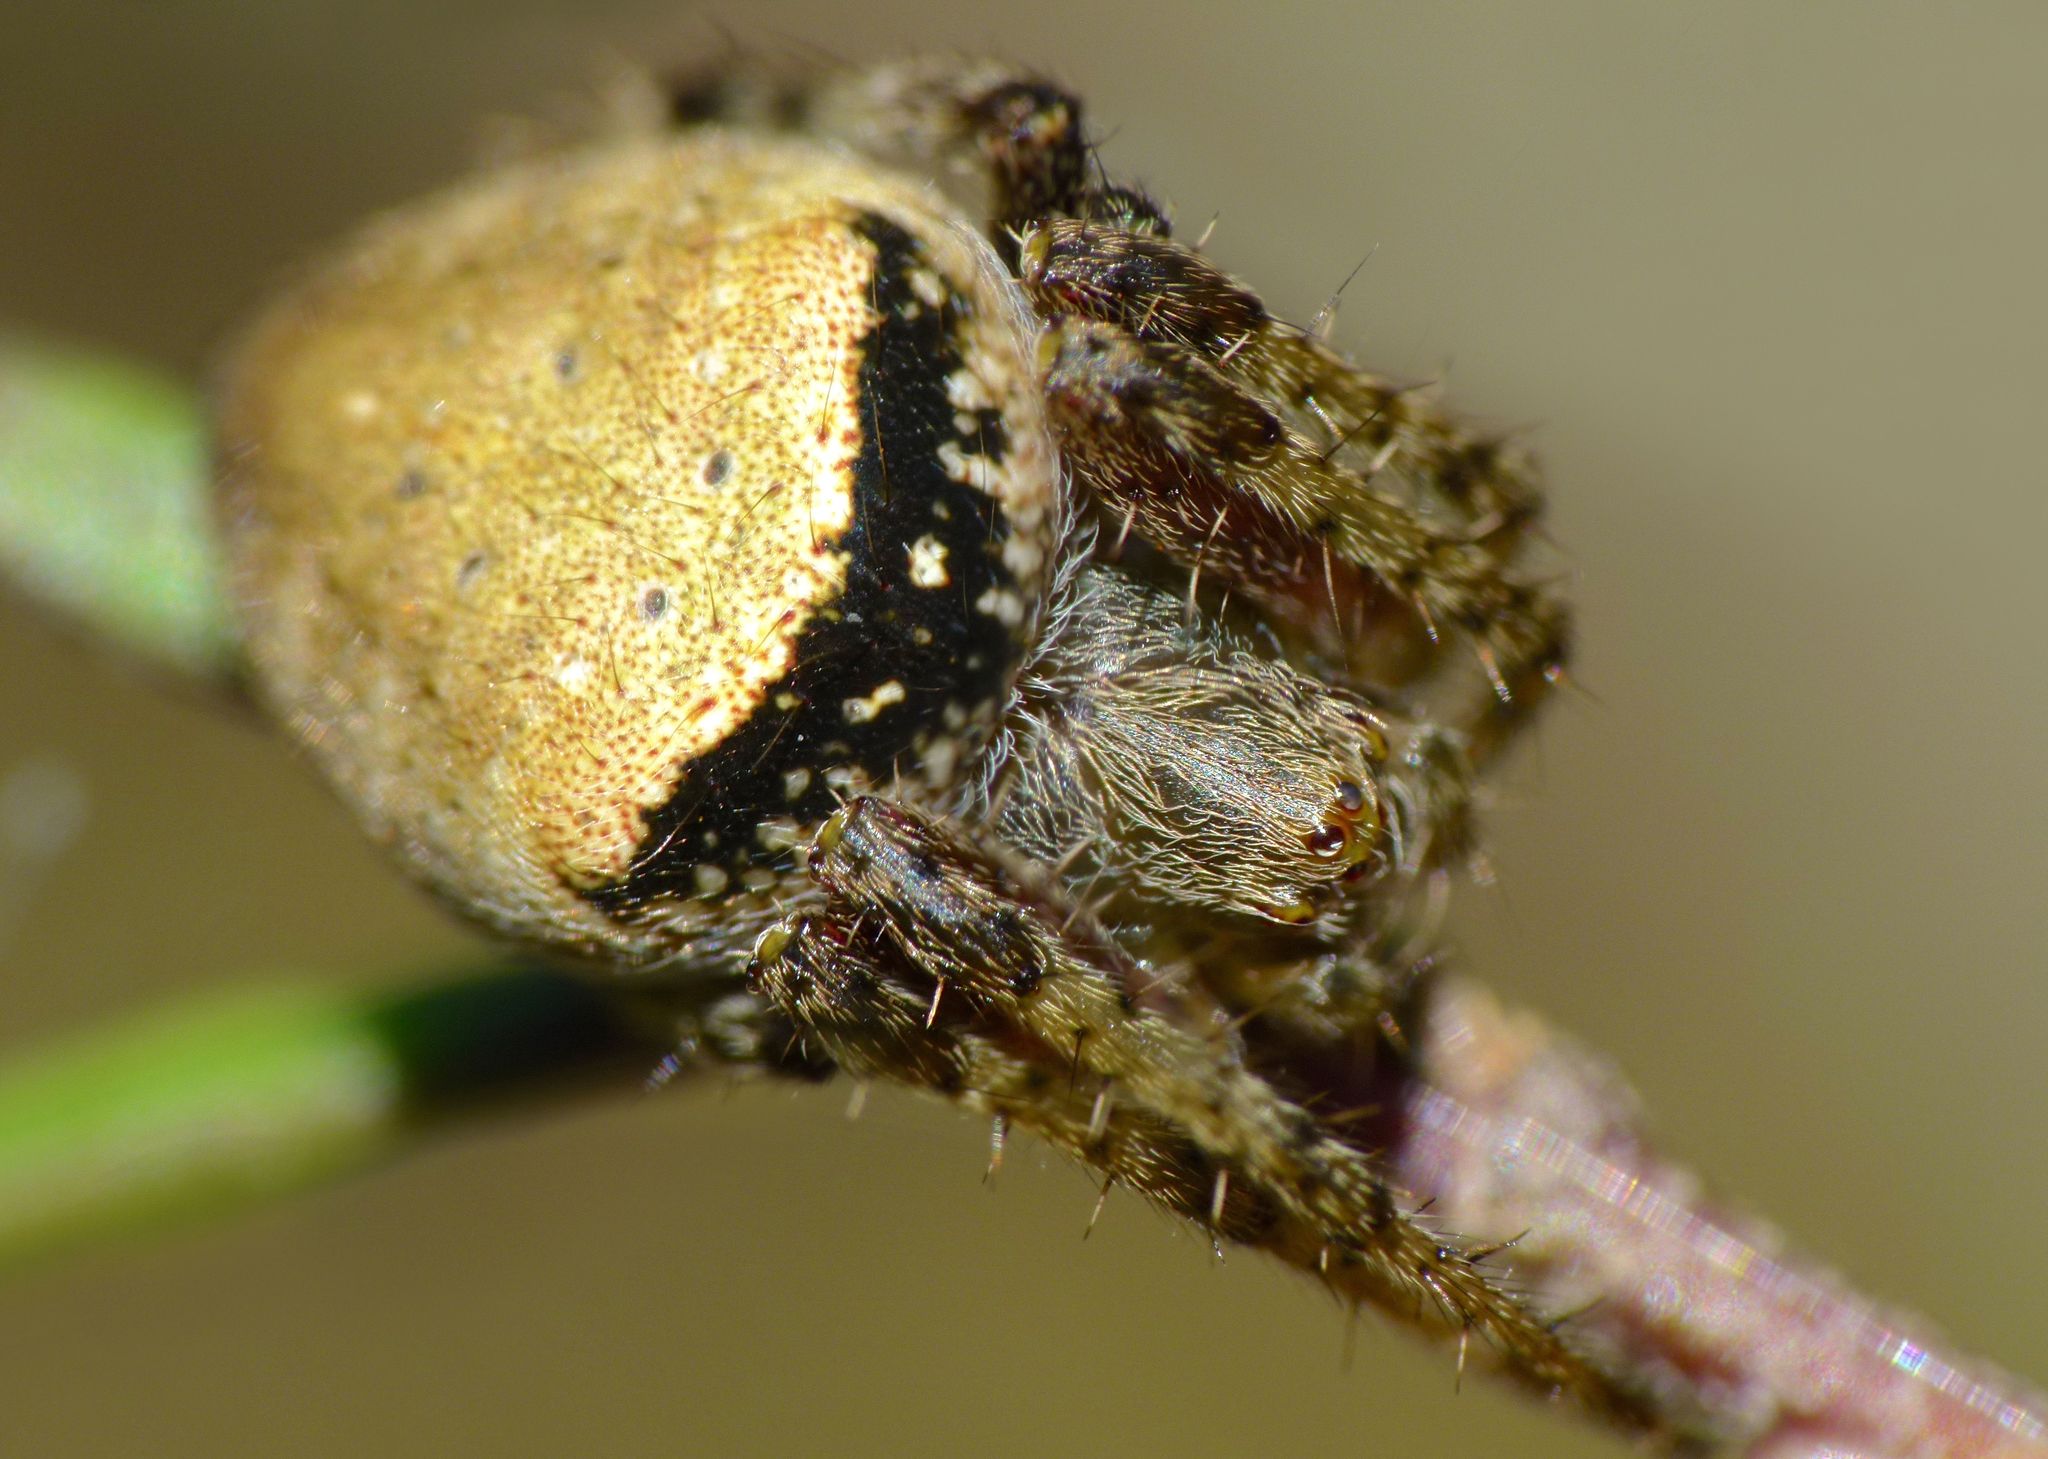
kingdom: Animalia
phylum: Arthropoda
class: Arachnida
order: Araneae
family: Araneidae
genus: Zealaranea
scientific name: Zealaranea crassa
